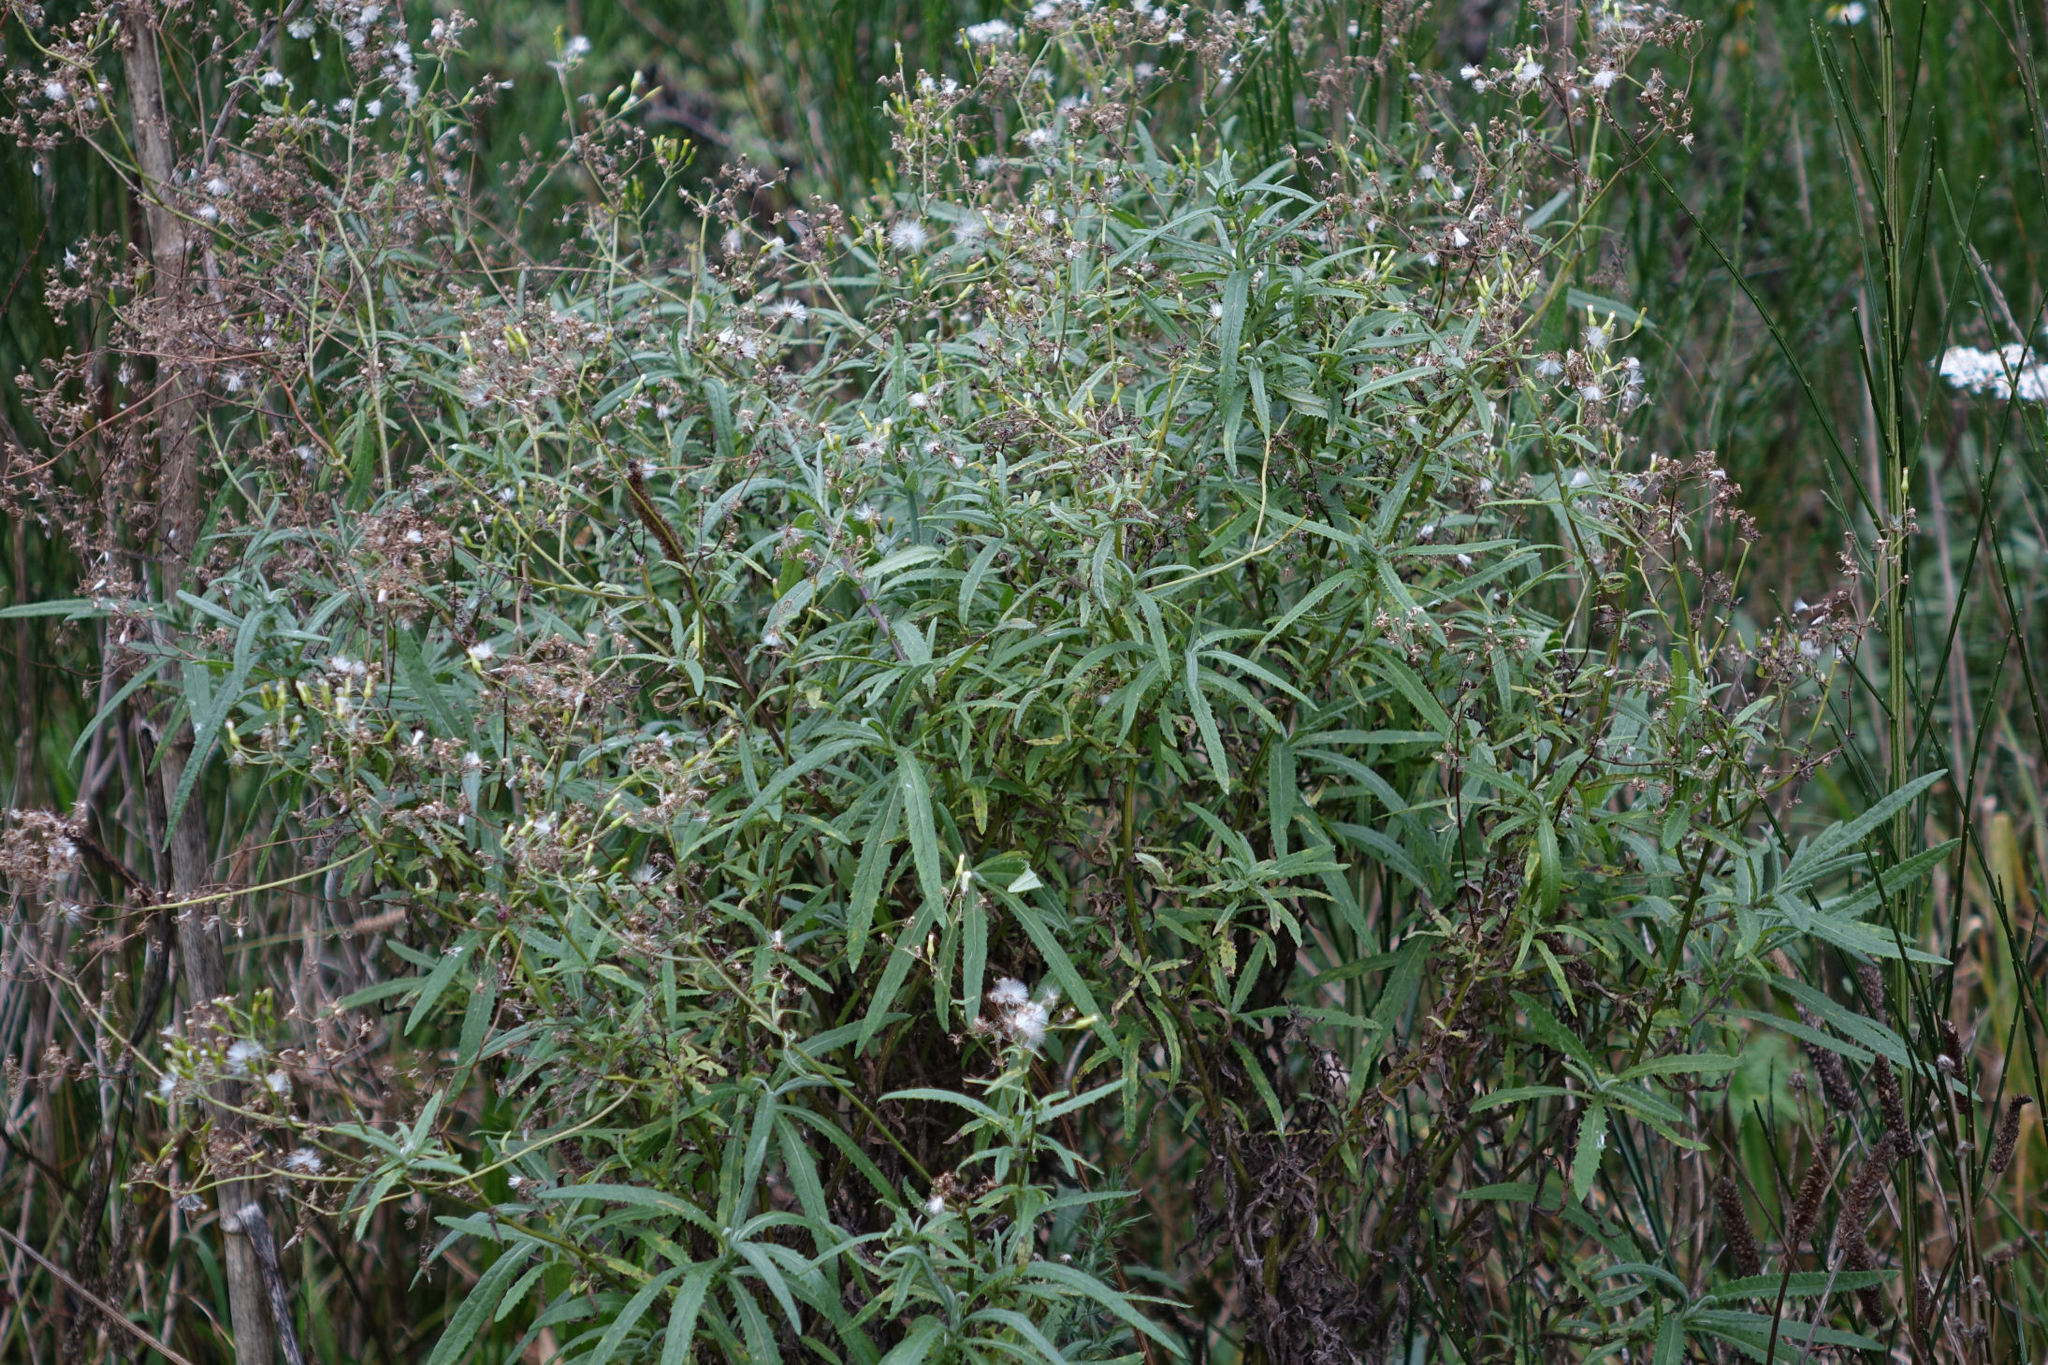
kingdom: Plantae
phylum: Tracheophyta
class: Magnoliopsida
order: Asterales
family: Asteraceae
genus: Senecio
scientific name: Senecio minimus
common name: Toothed fireweed
